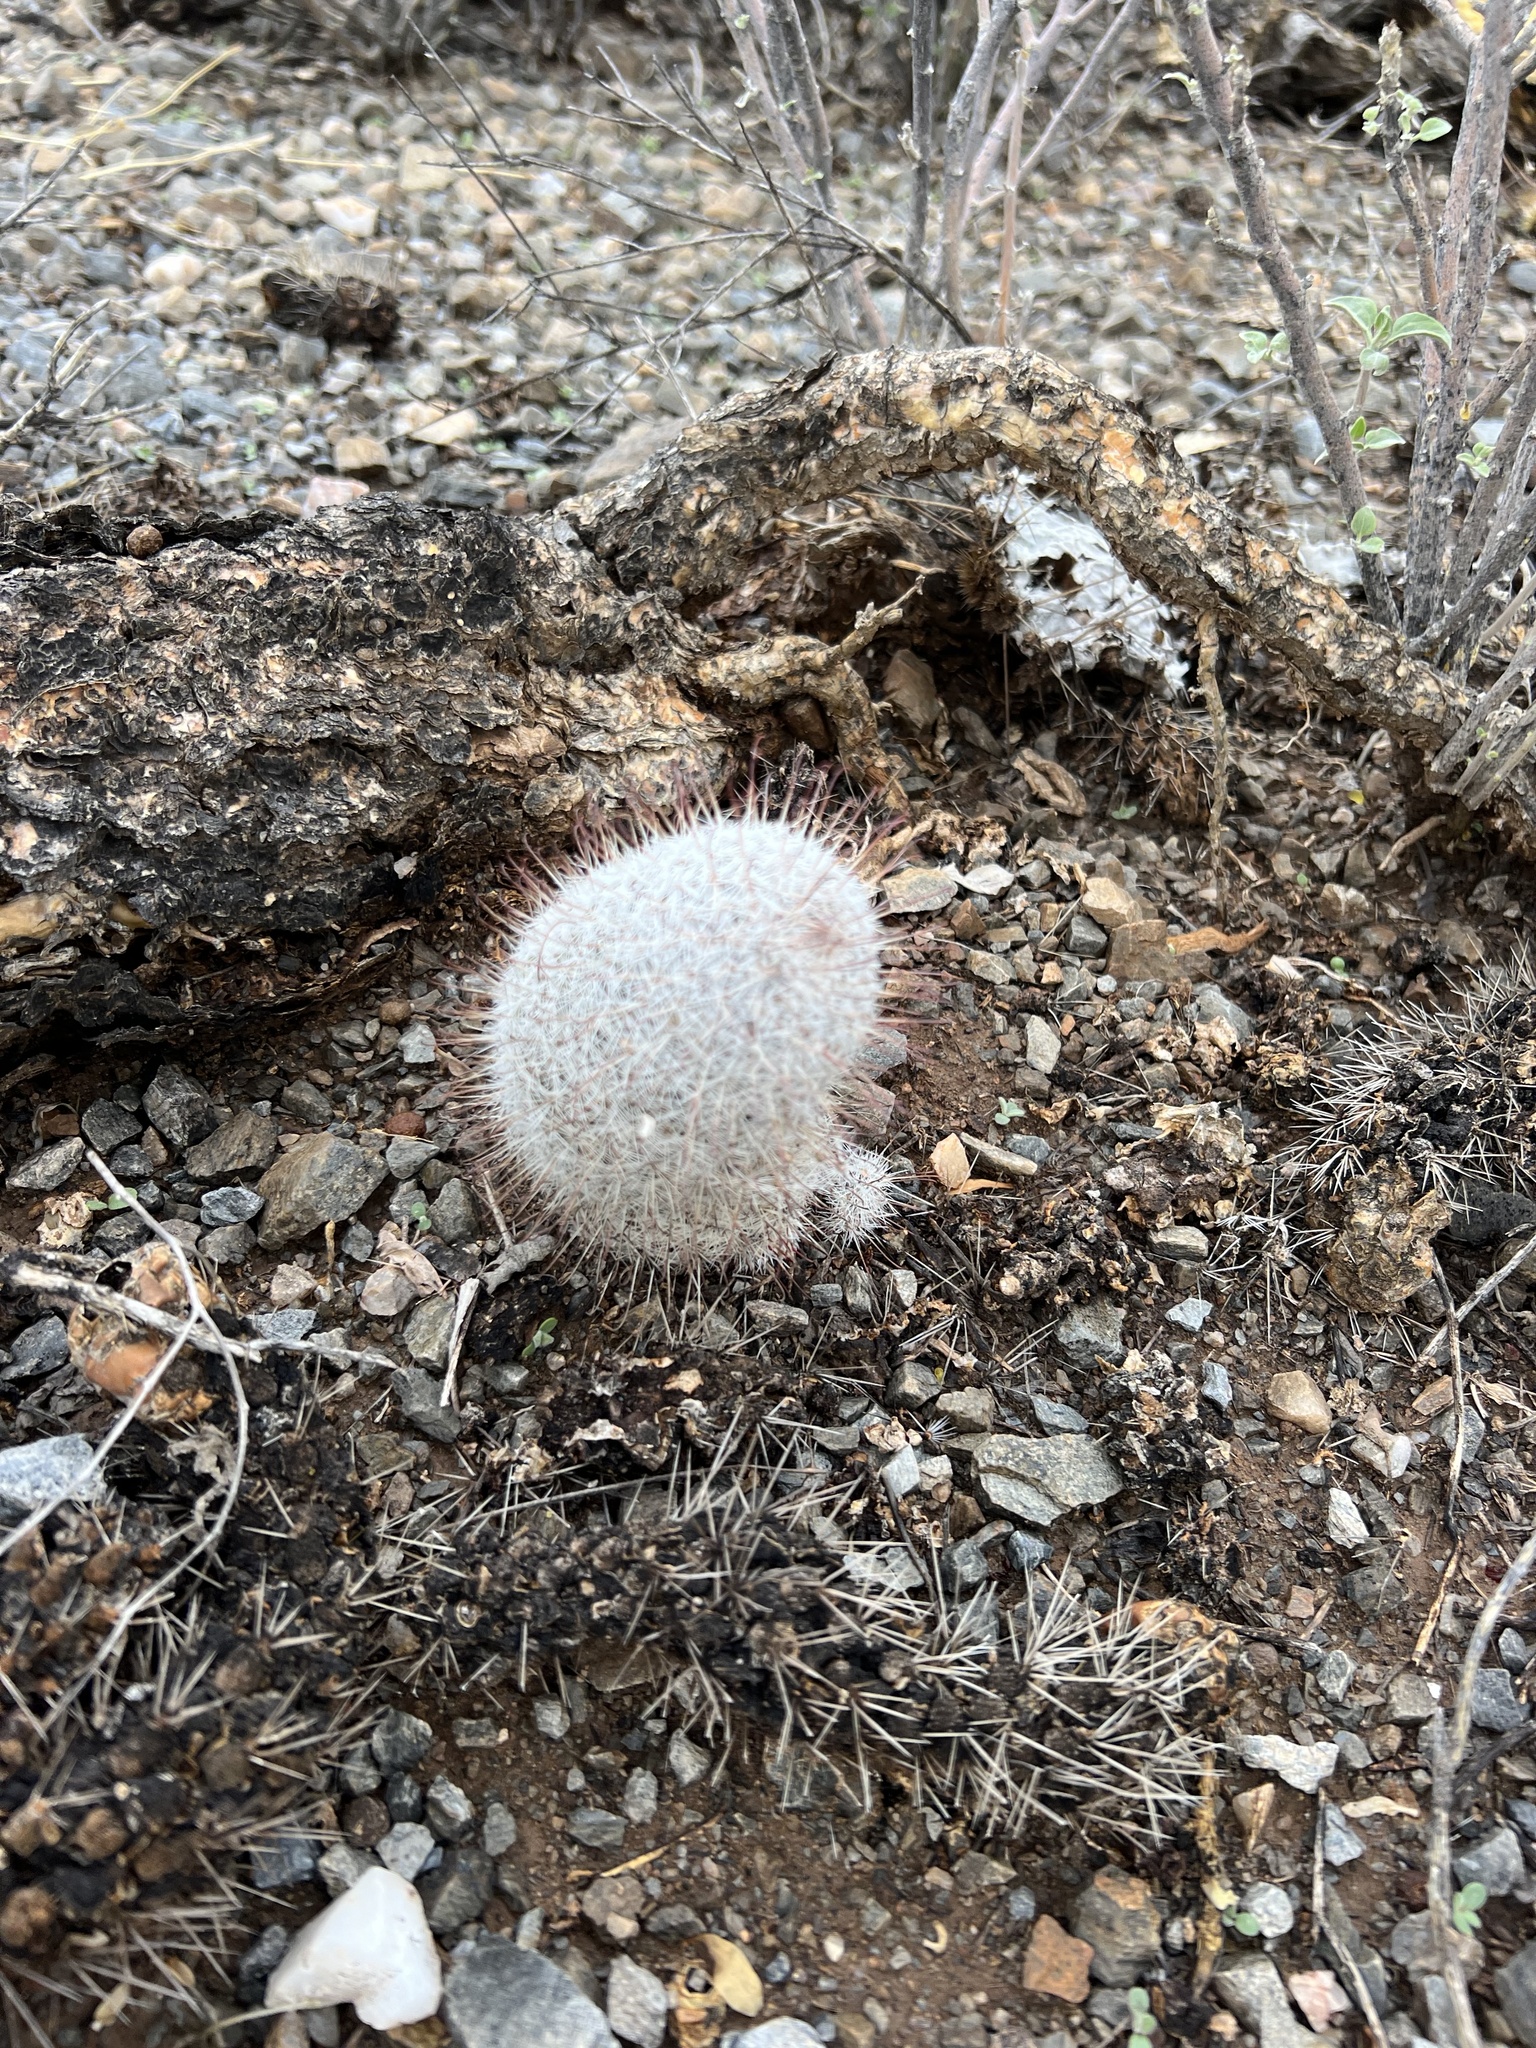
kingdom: Plantae
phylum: Tracheophyta
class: Magnoliopsida
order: Caryophyllales
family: Cactaceae
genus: Cochemiea
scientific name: Cochemiea grahamii
